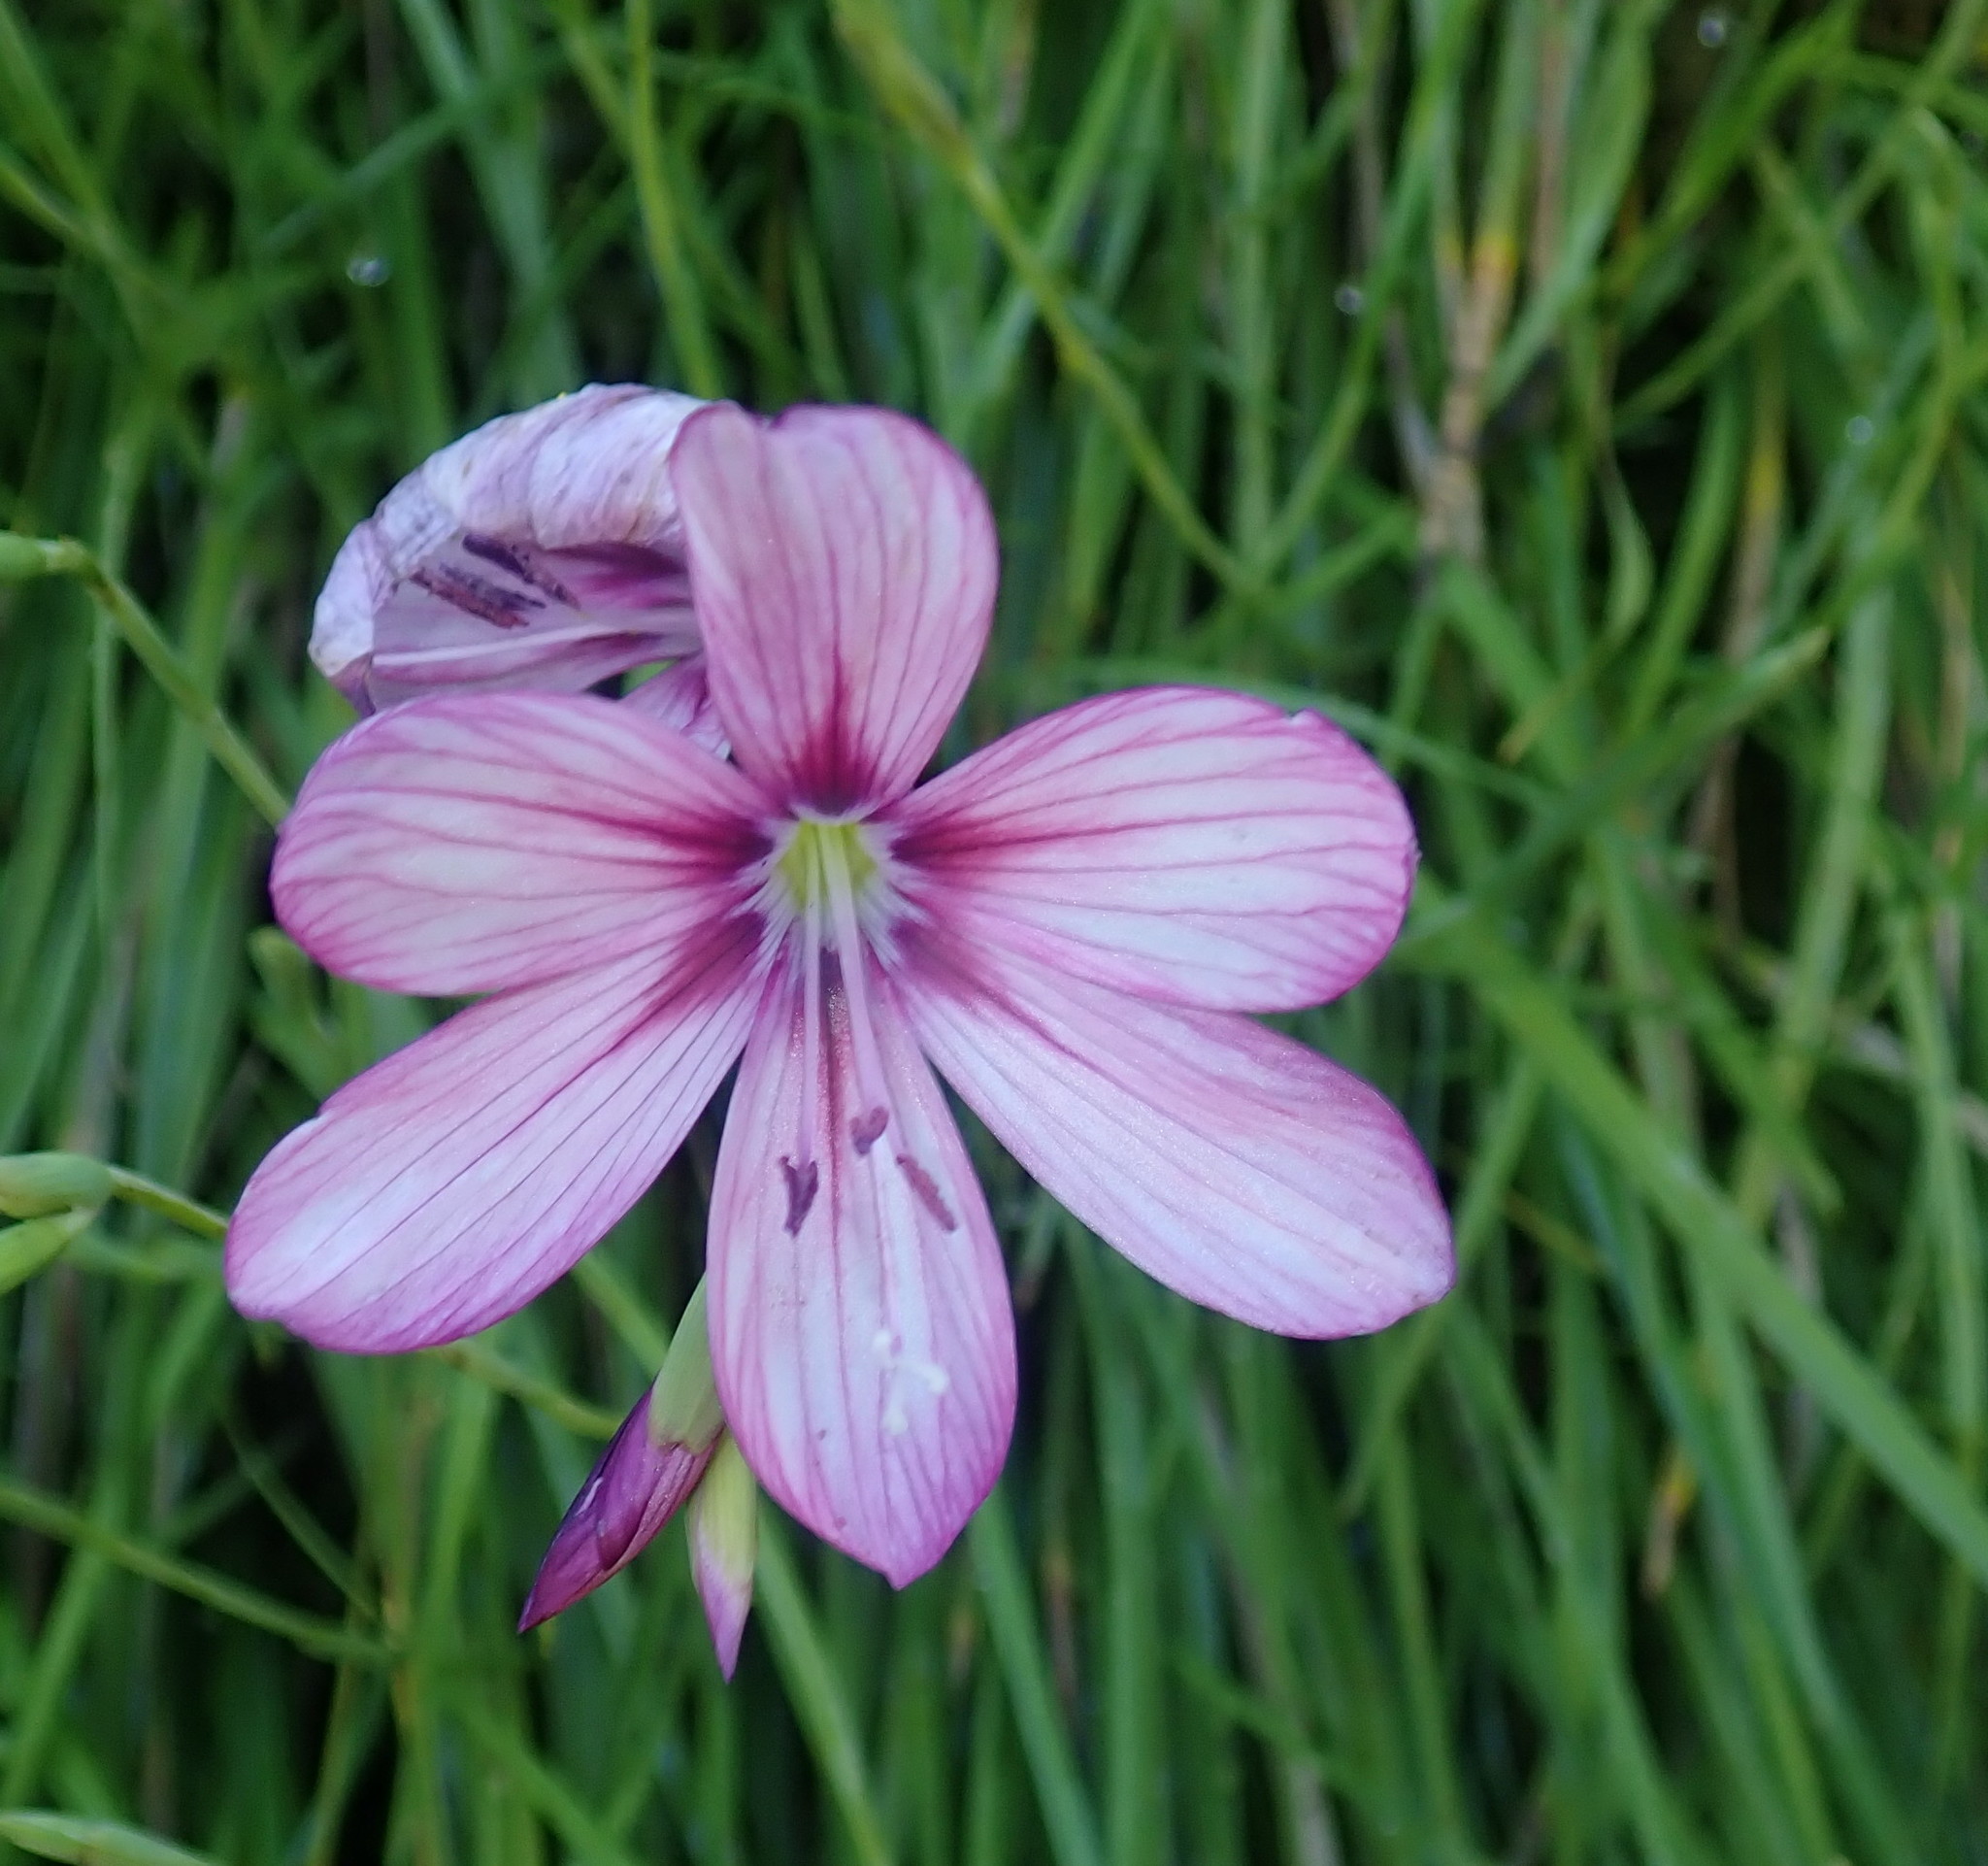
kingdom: Plantae
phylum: Tracheophyta
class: Liliopsida
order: Asparagales
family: Iridaceae
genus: Geissorhiza
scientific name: Geissorhiza outeniquensis
